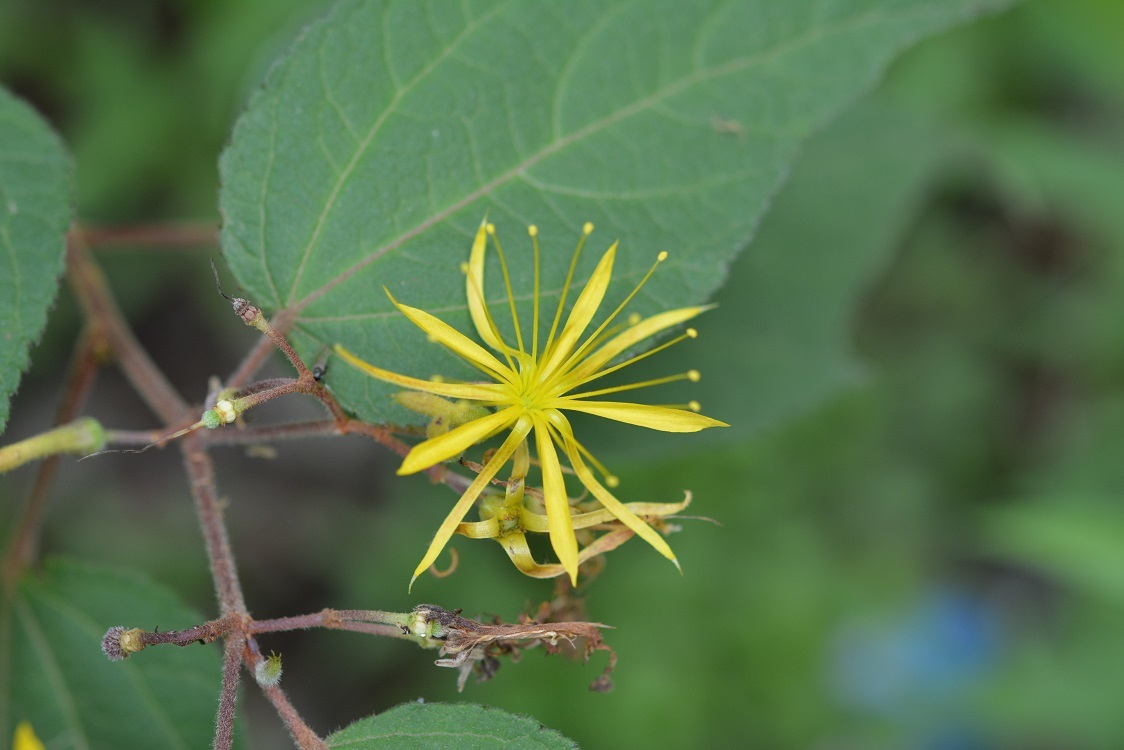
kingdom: Plantae
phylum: Tracheophyta
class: Magnoliopsida
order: Malvales
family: Malvaceae
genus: Triumfetta
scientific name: Triumfetta columnaris
